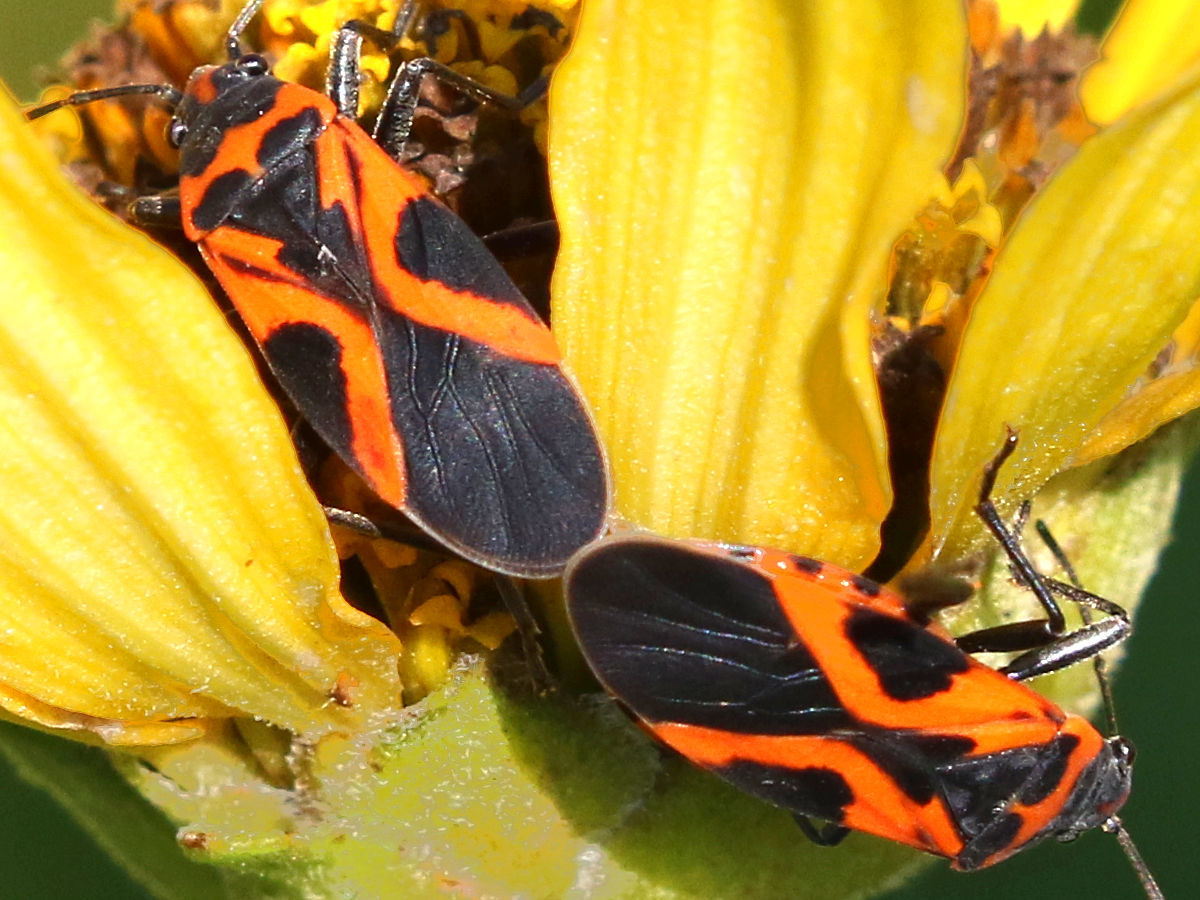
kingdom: Animalia
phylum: Arthropoda
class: Insecta
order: Hemiptera
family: Lygaeidae
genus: Lygaeus
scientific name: Lygaeus turcicus
